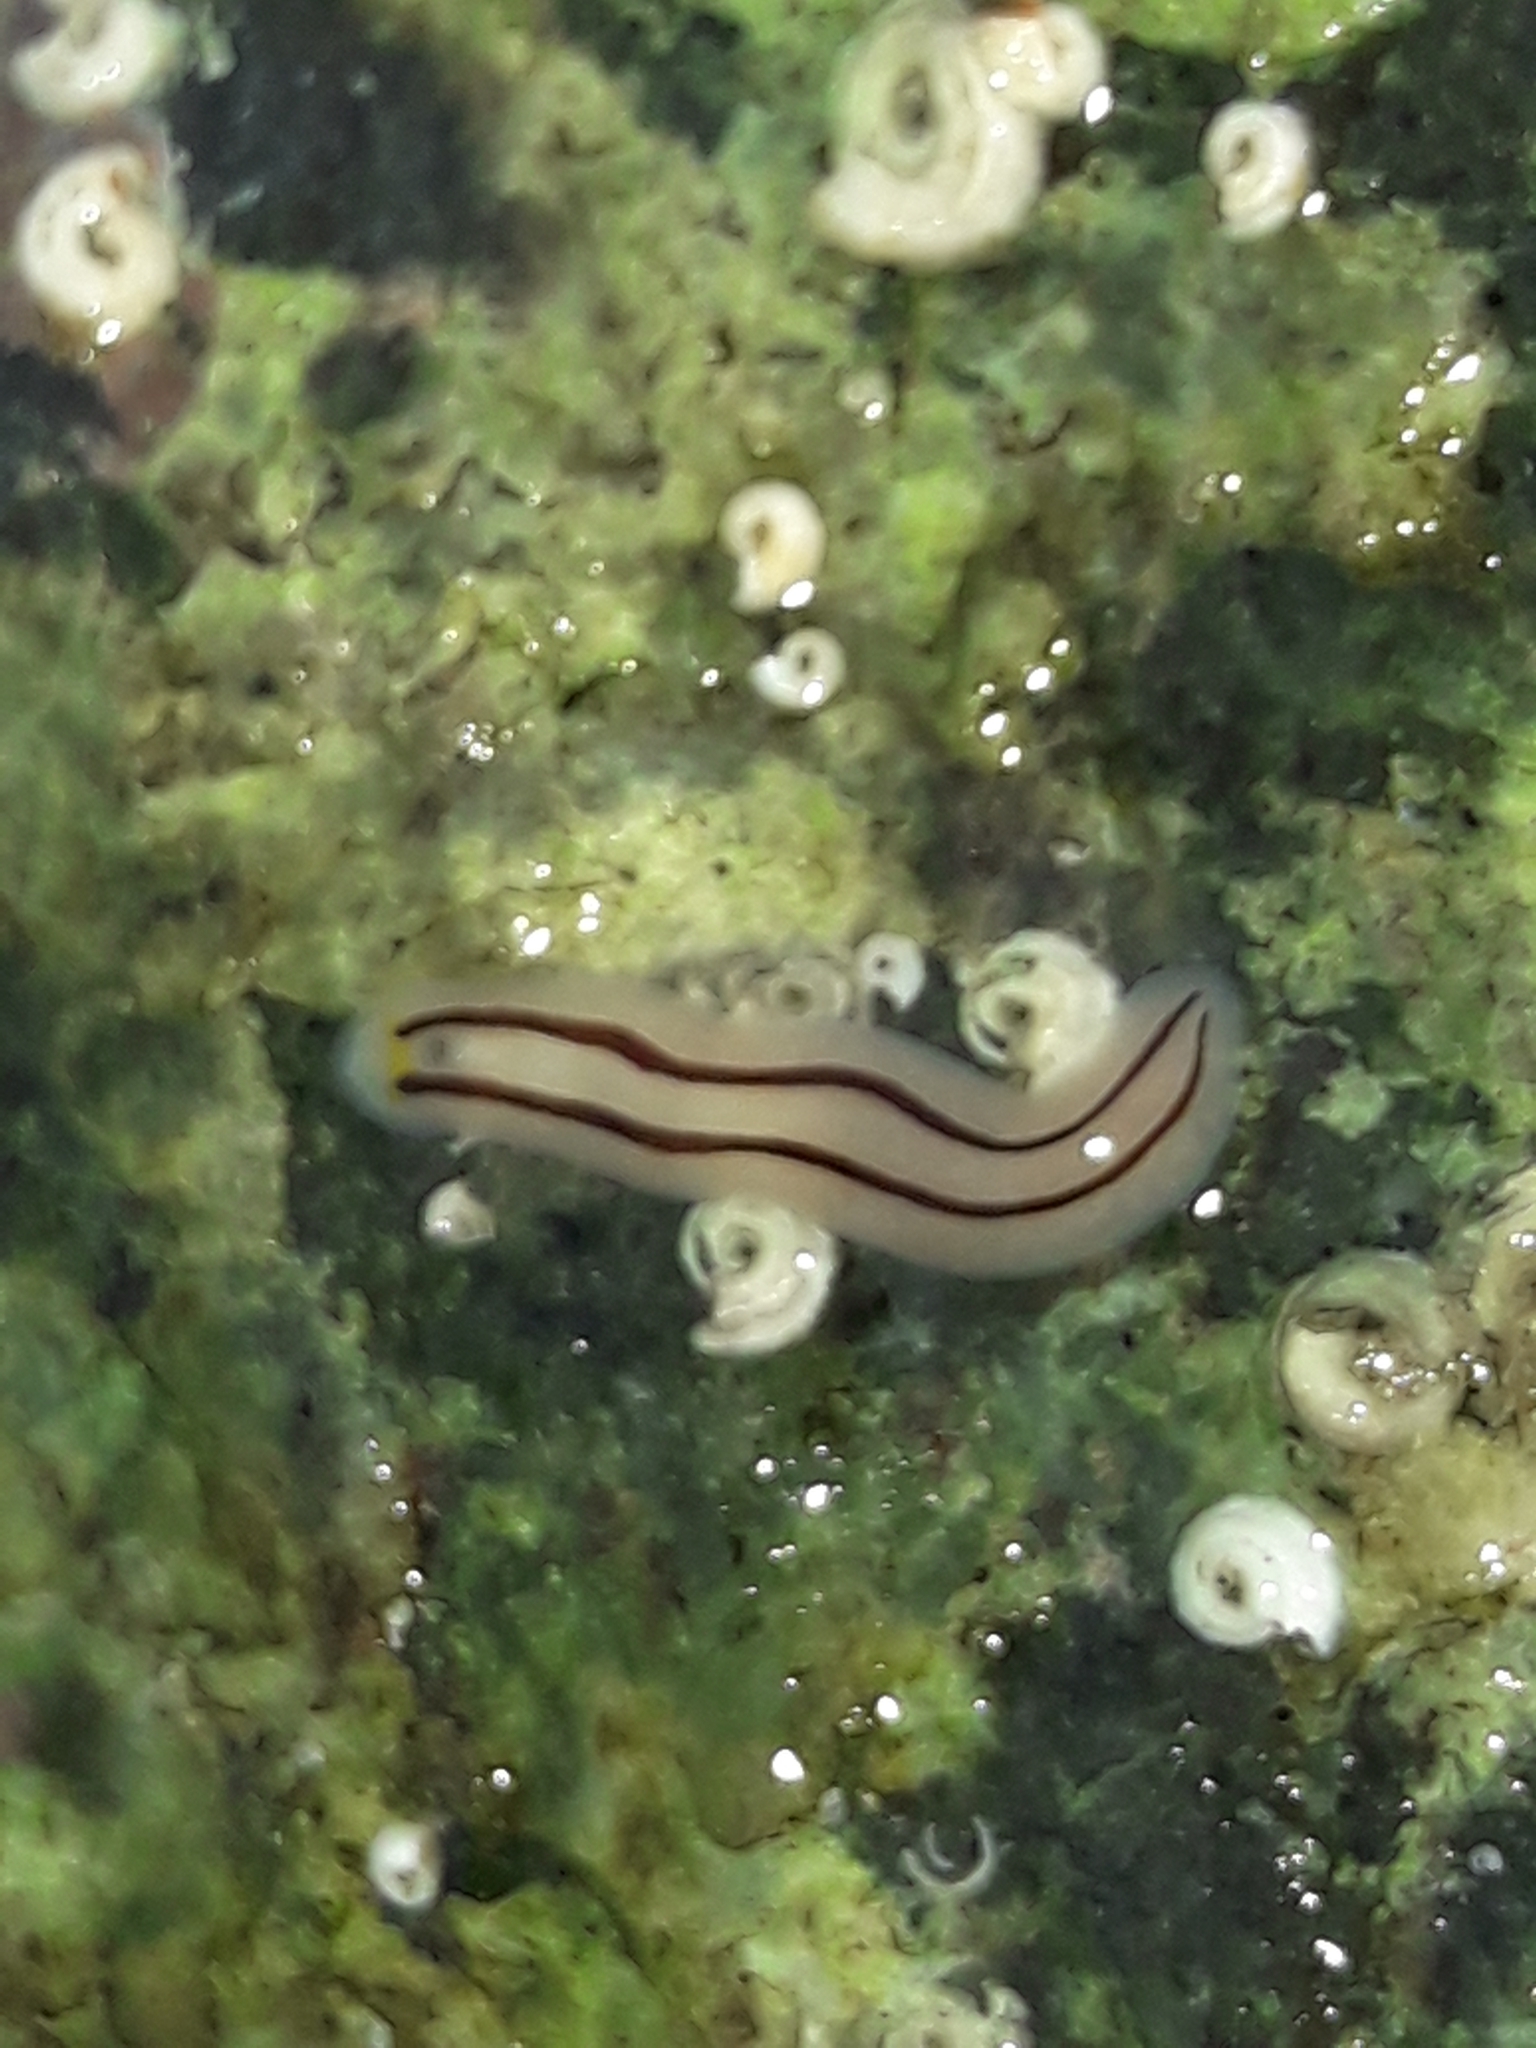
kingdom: Animalia
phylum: Platyhelminthes
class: Turbellaria
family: Chromoplanidae
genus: Chromoplana
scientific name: Chromoplana sirena
